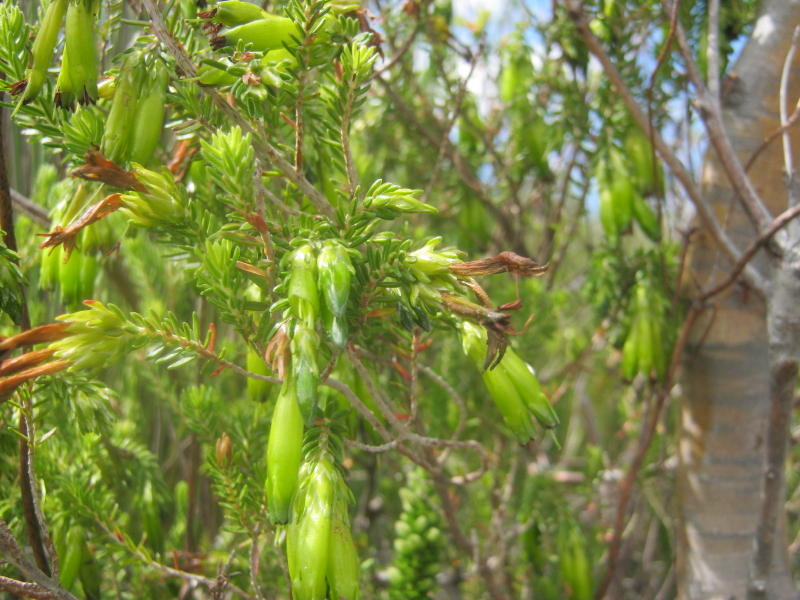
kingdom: Plantae
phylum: Tracheophyta
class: Magnoliopsida
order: Ericales
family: Ericaceae
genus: Erica
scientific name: Erica viridiflora
